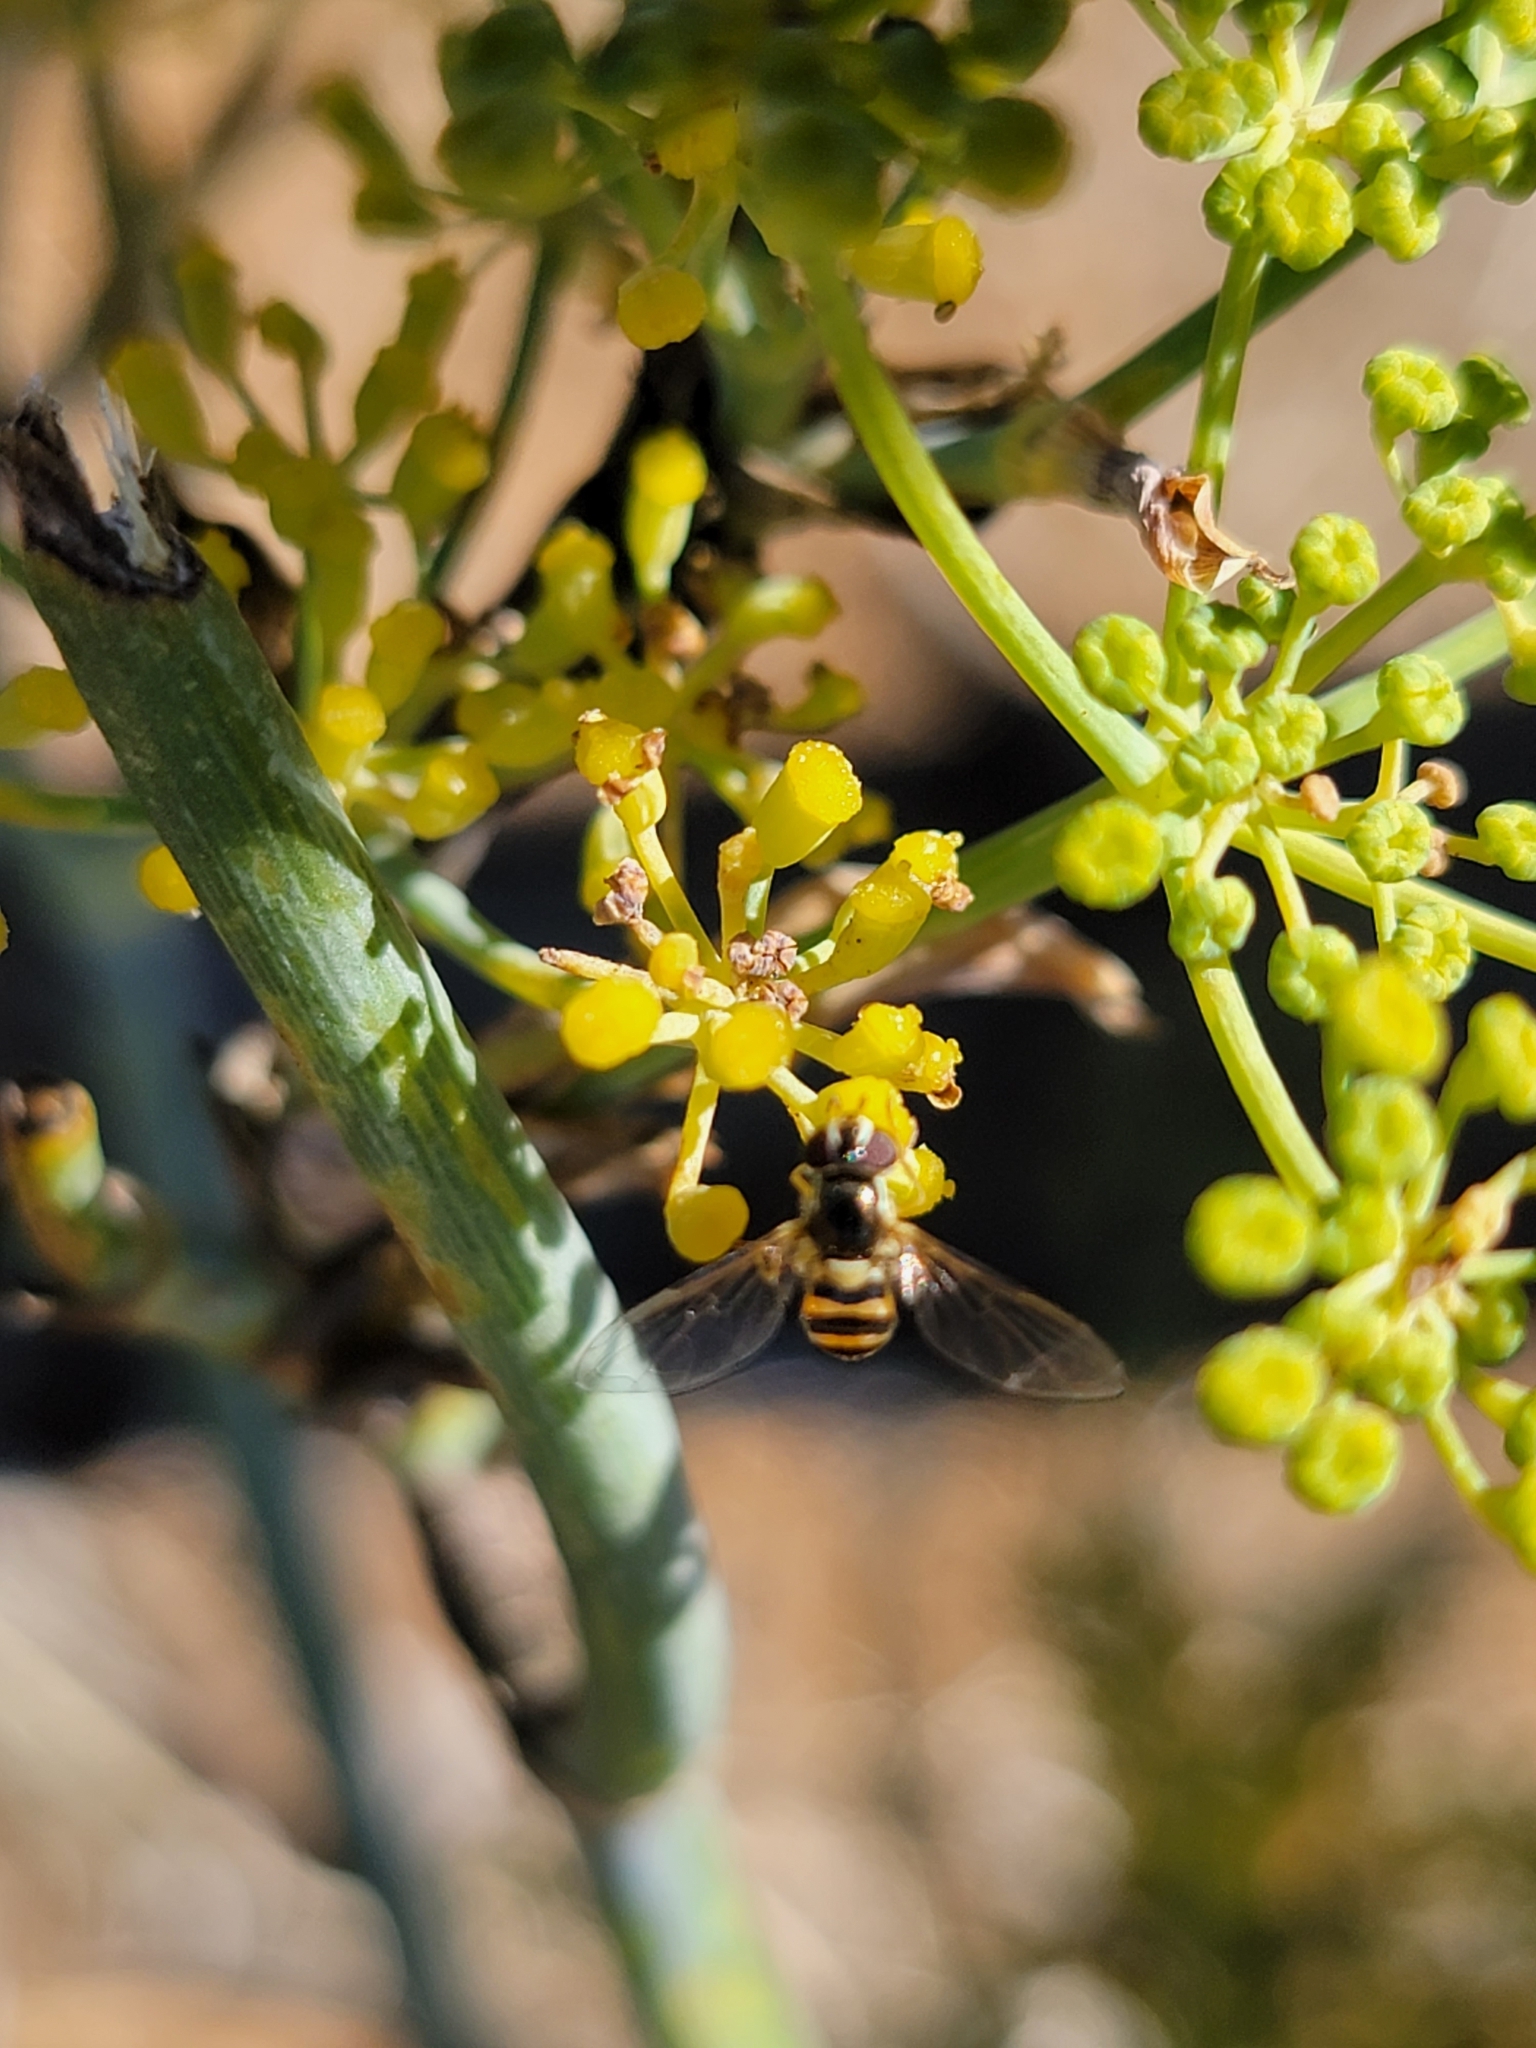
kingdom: Animalia
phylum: Arthropoda
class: Insecta
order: Diptera
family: Syrphidae
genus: Allograpta
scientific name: Allograpta exotica
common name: Syrphid fly
